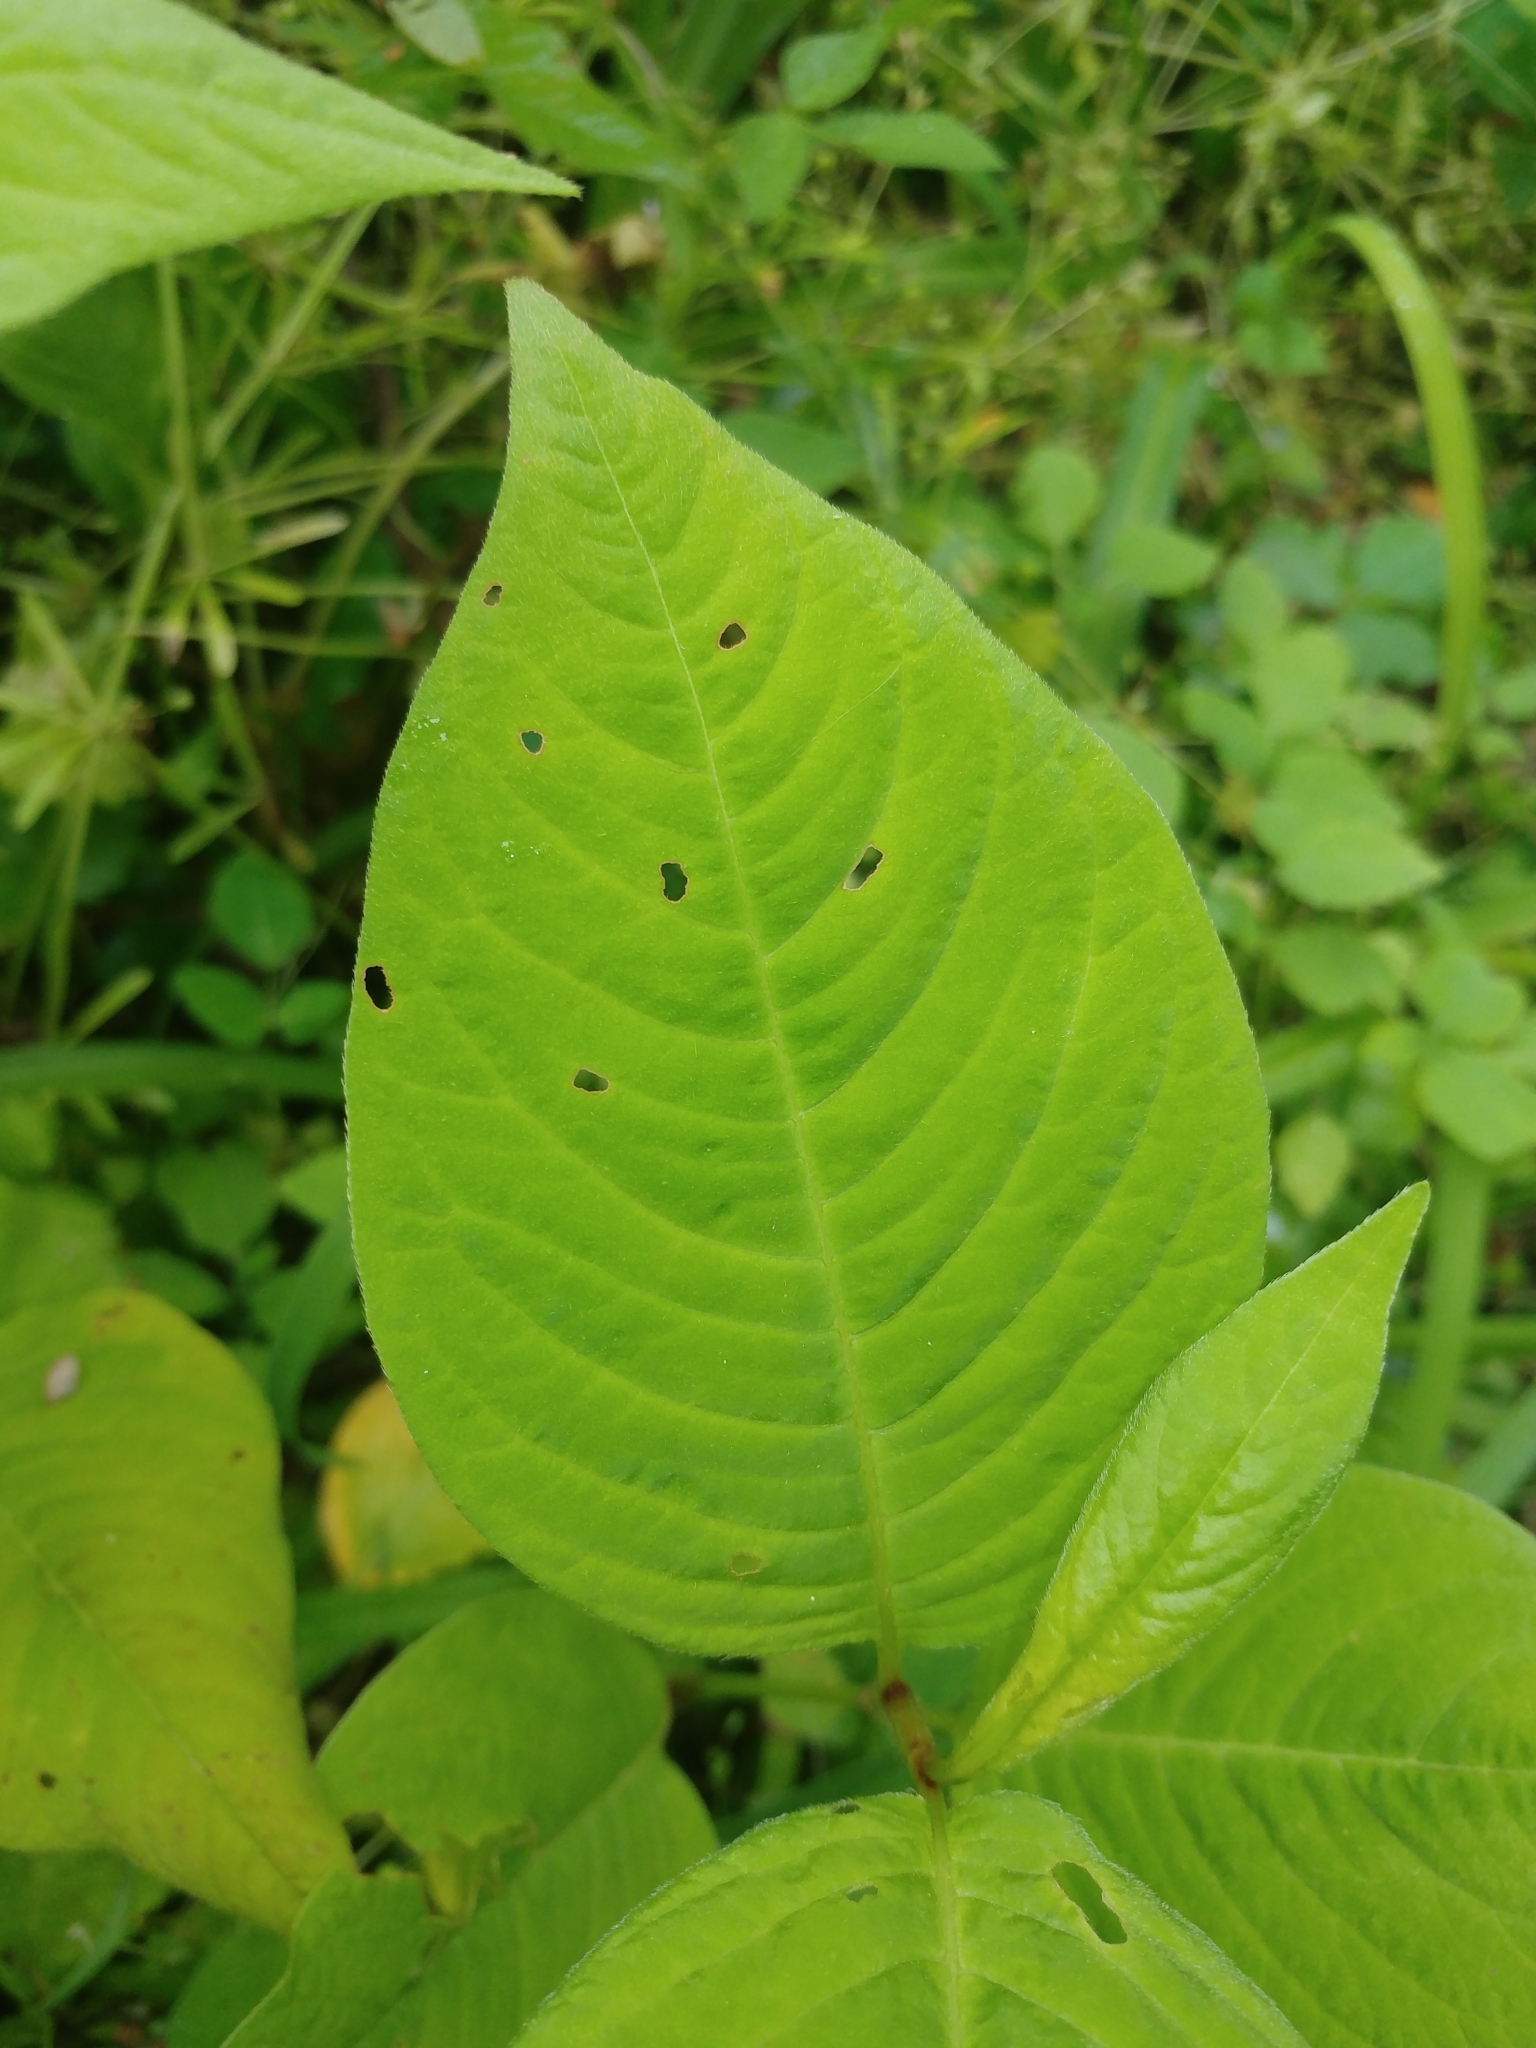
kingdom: Plantae
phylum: Tracheophyta
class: Magnoliopsida
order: Caryophyllales
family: Polygonaceae
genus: Persicaria
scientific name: Persicaria virginiana
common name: Jumpseed
